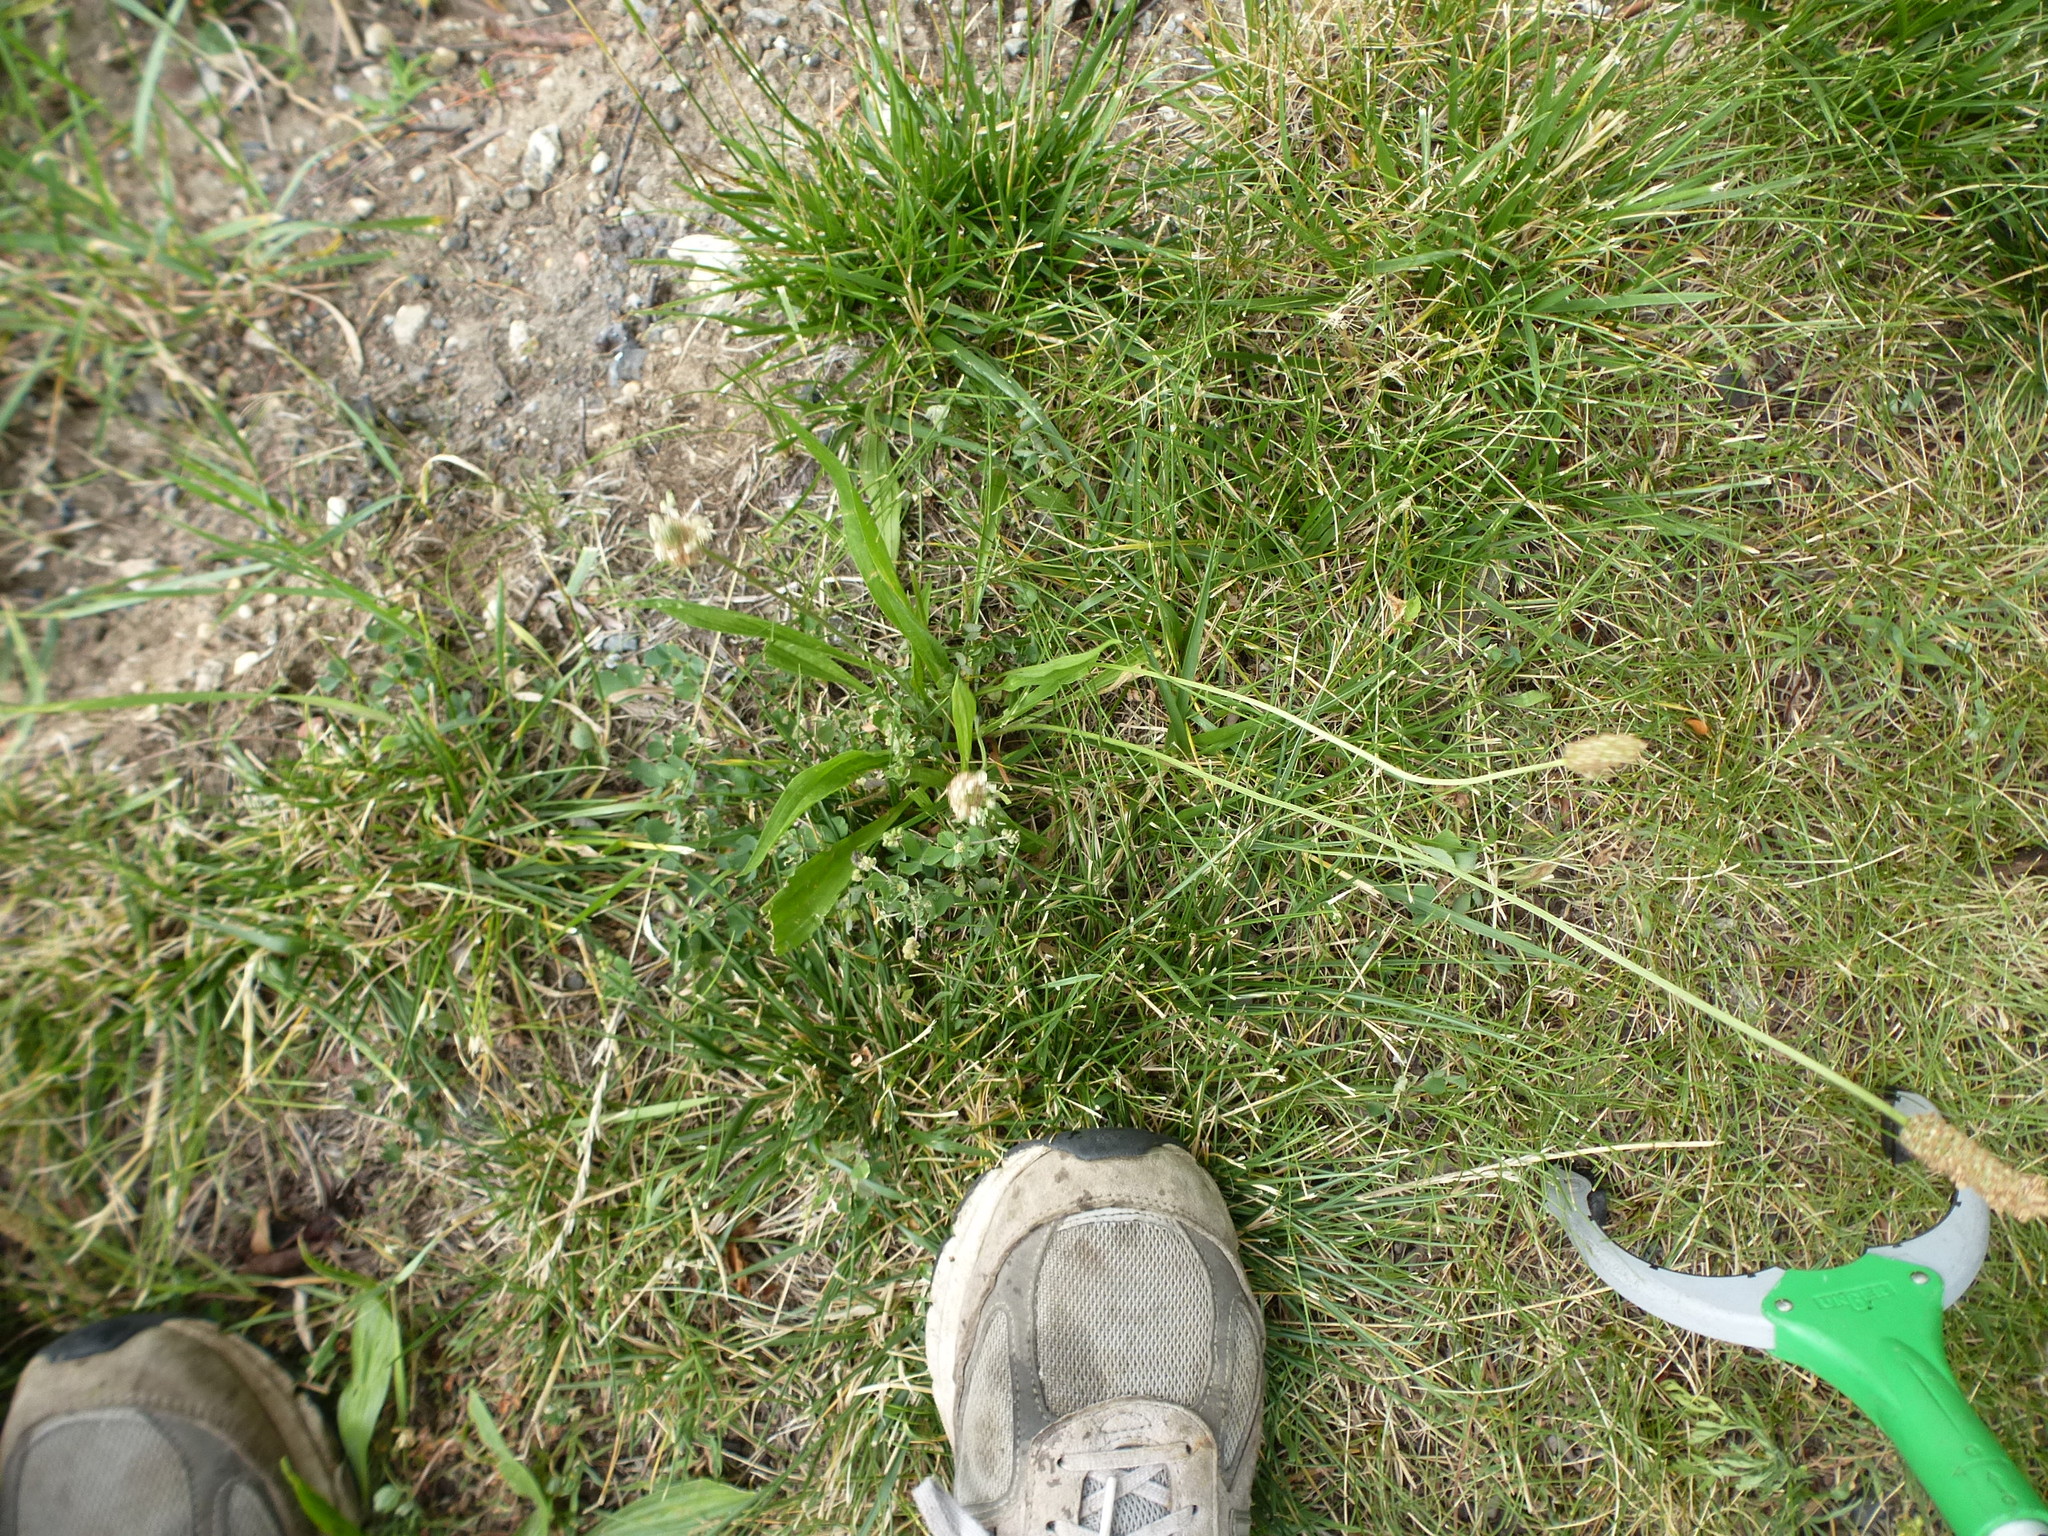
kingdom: Plantae
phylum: Tracheophyta
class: Magnoliopsida
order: Lamiales
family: Plantaginaceae
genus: Plantago
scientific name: Plantago lanceolata
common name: Ribwort plantain
